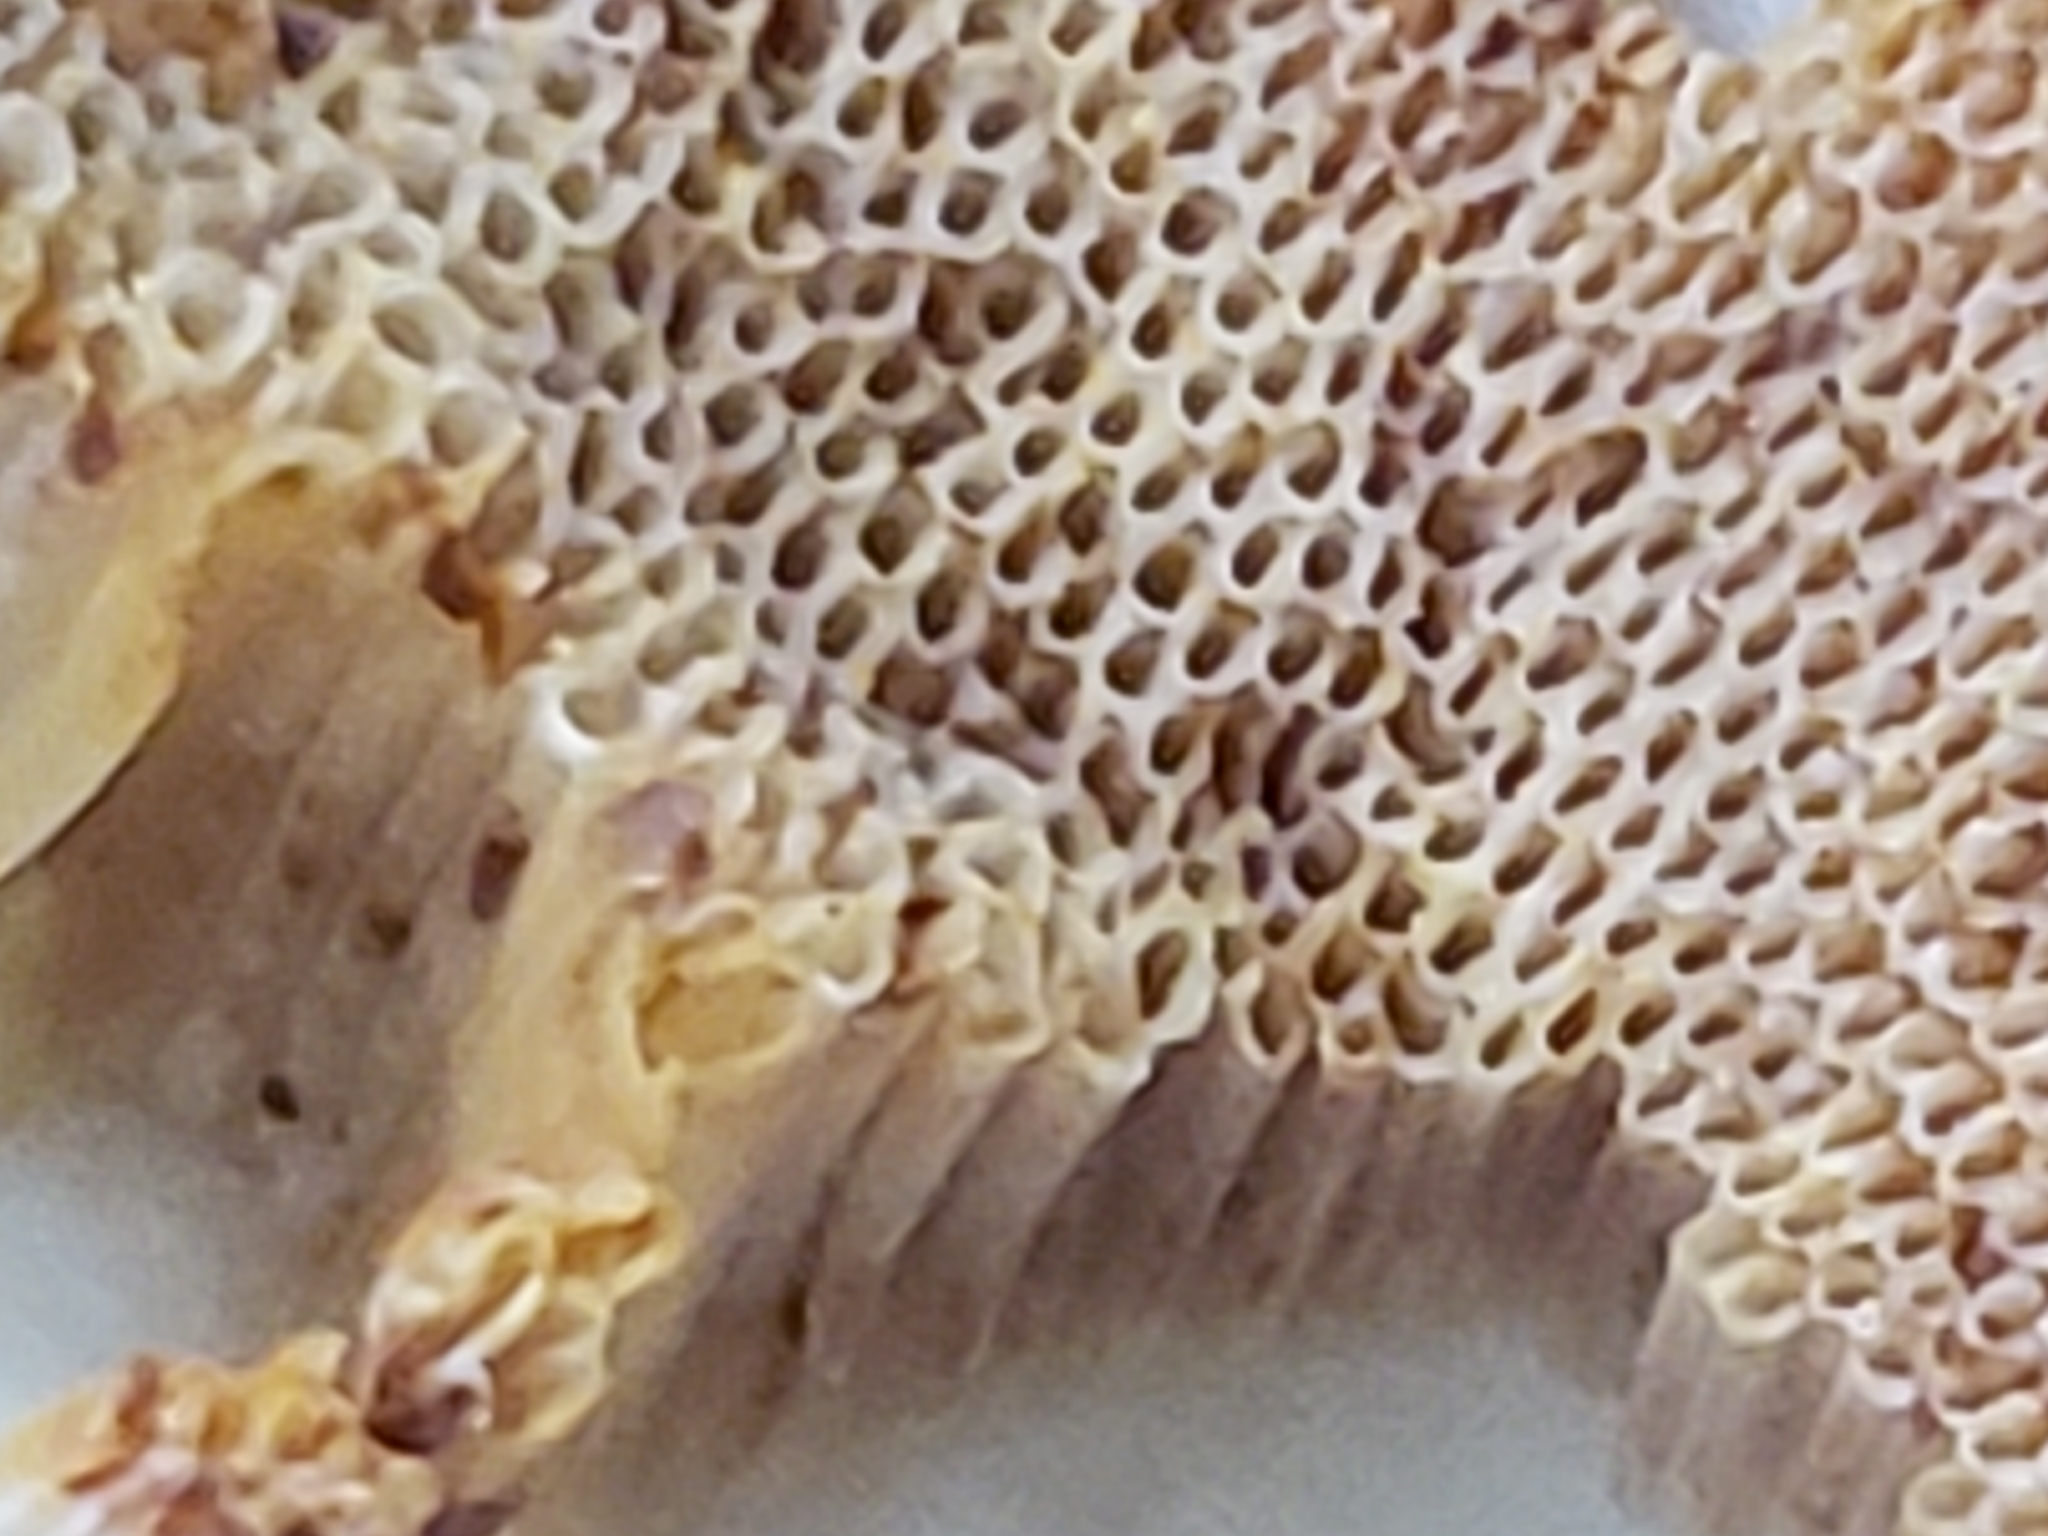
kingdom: Fungi
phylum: Basidiomycota
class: Agaricomycetes
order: Boletales
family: Boletaceae
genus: Pulveroboletus
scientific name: Pulveroboletus curtisii
